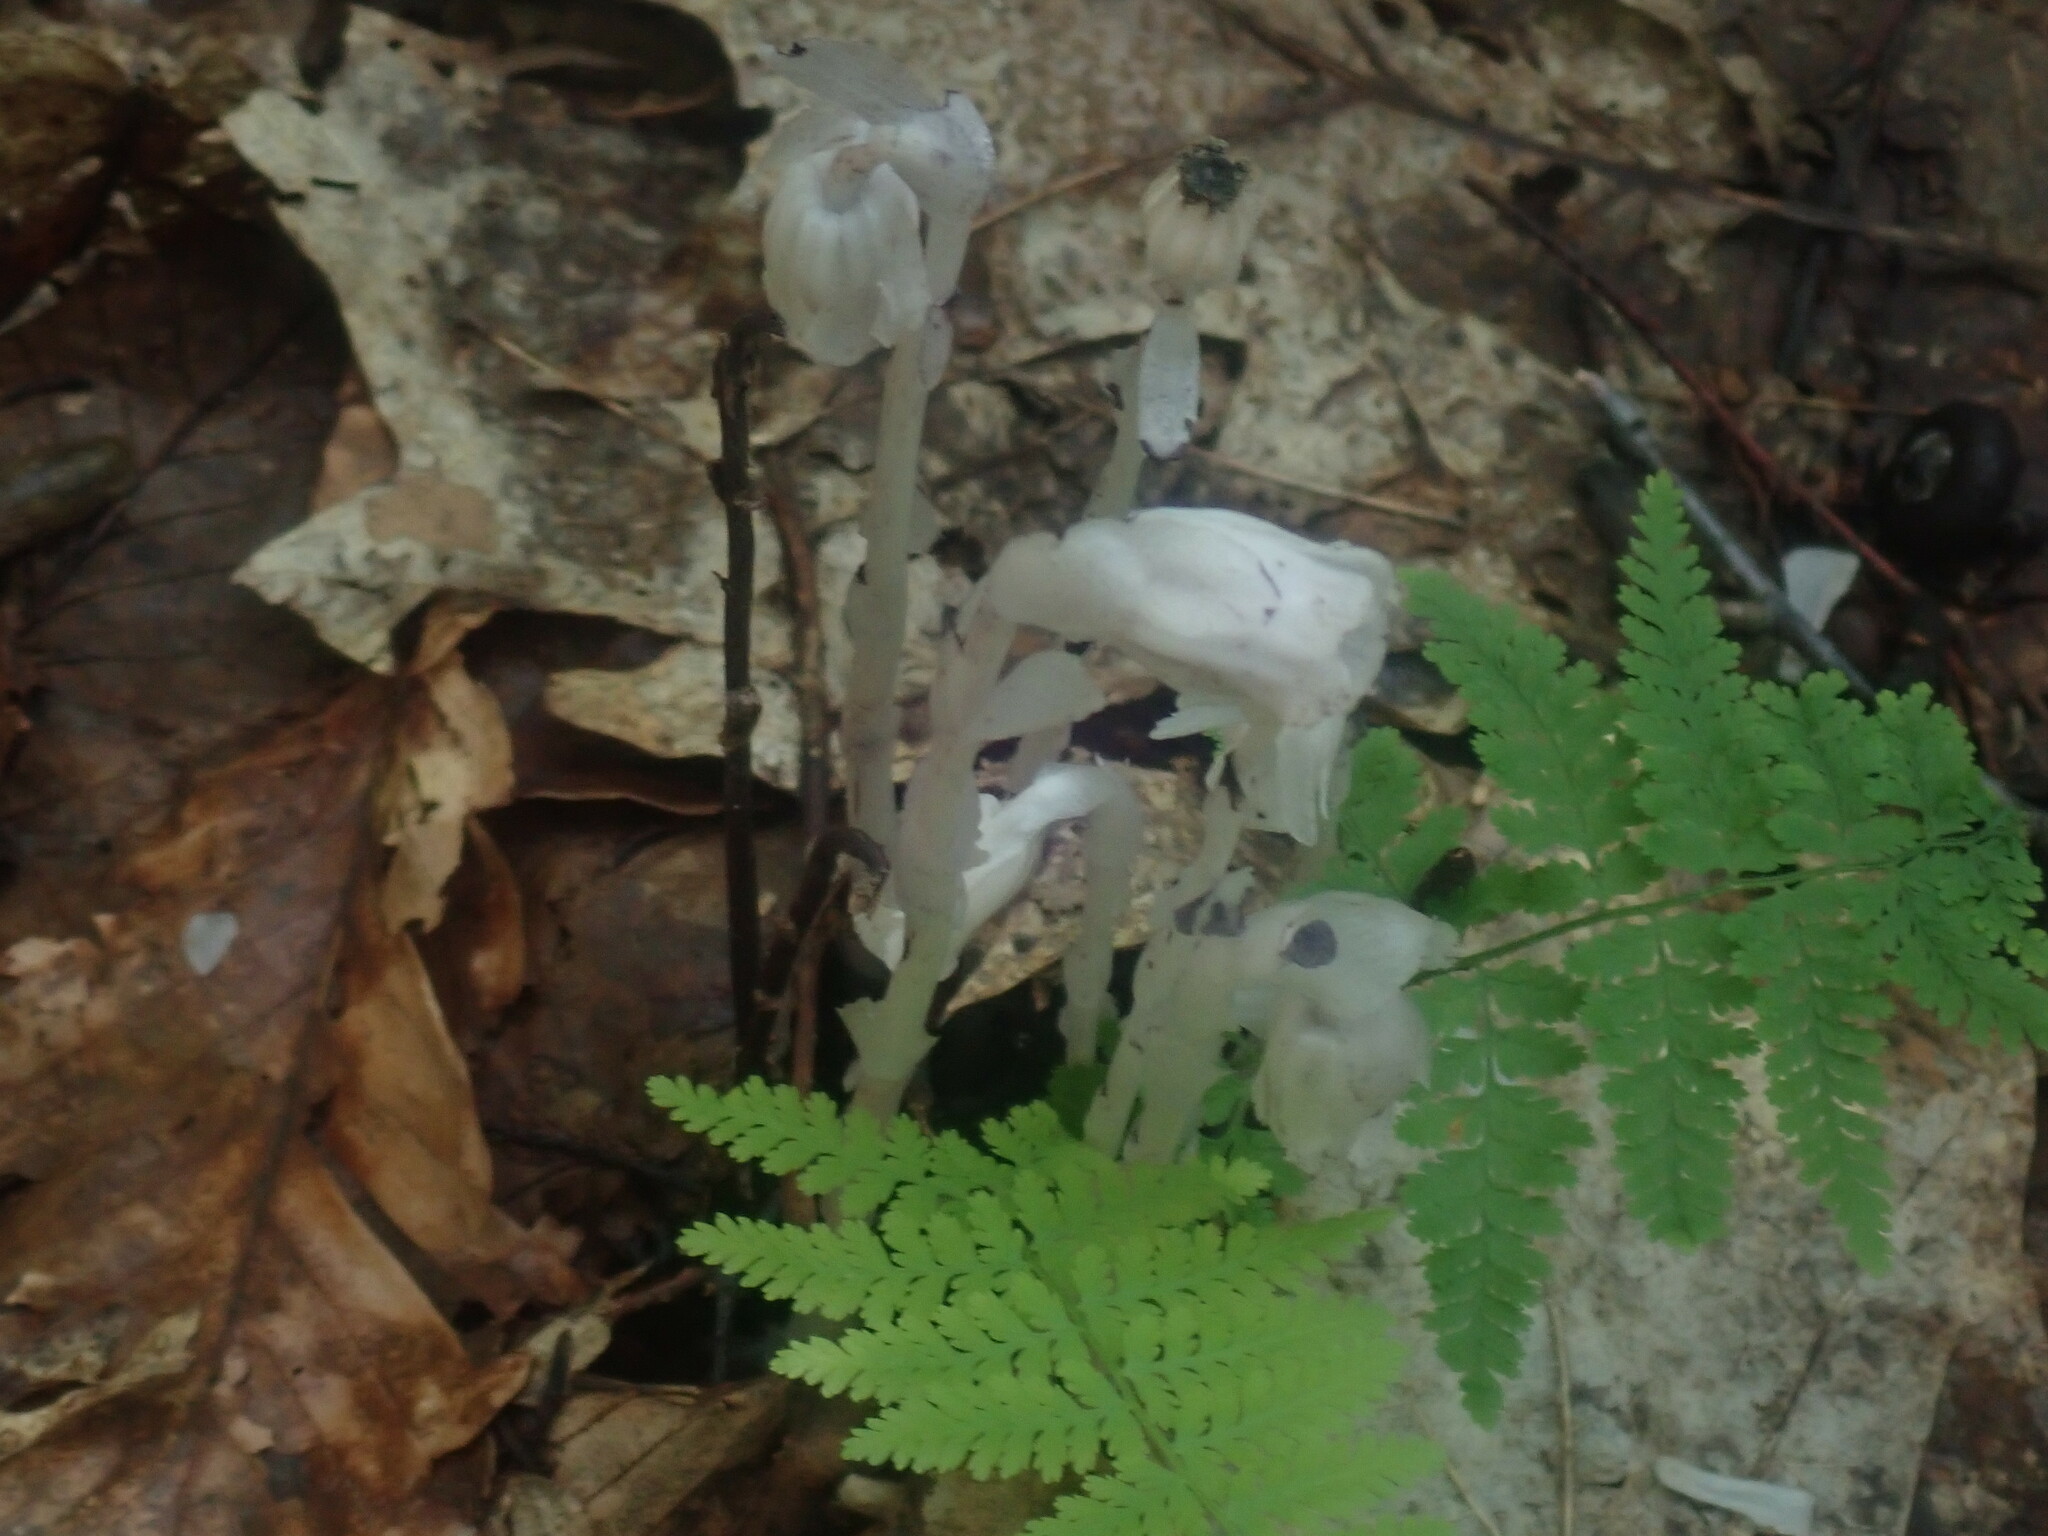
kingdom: Plantae
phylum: Tracheophyta
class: Magnoliopsida
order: Ericales
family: Ericaceae
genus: Monotropa
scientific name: Monotropa uniflora
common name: Convulsion root
